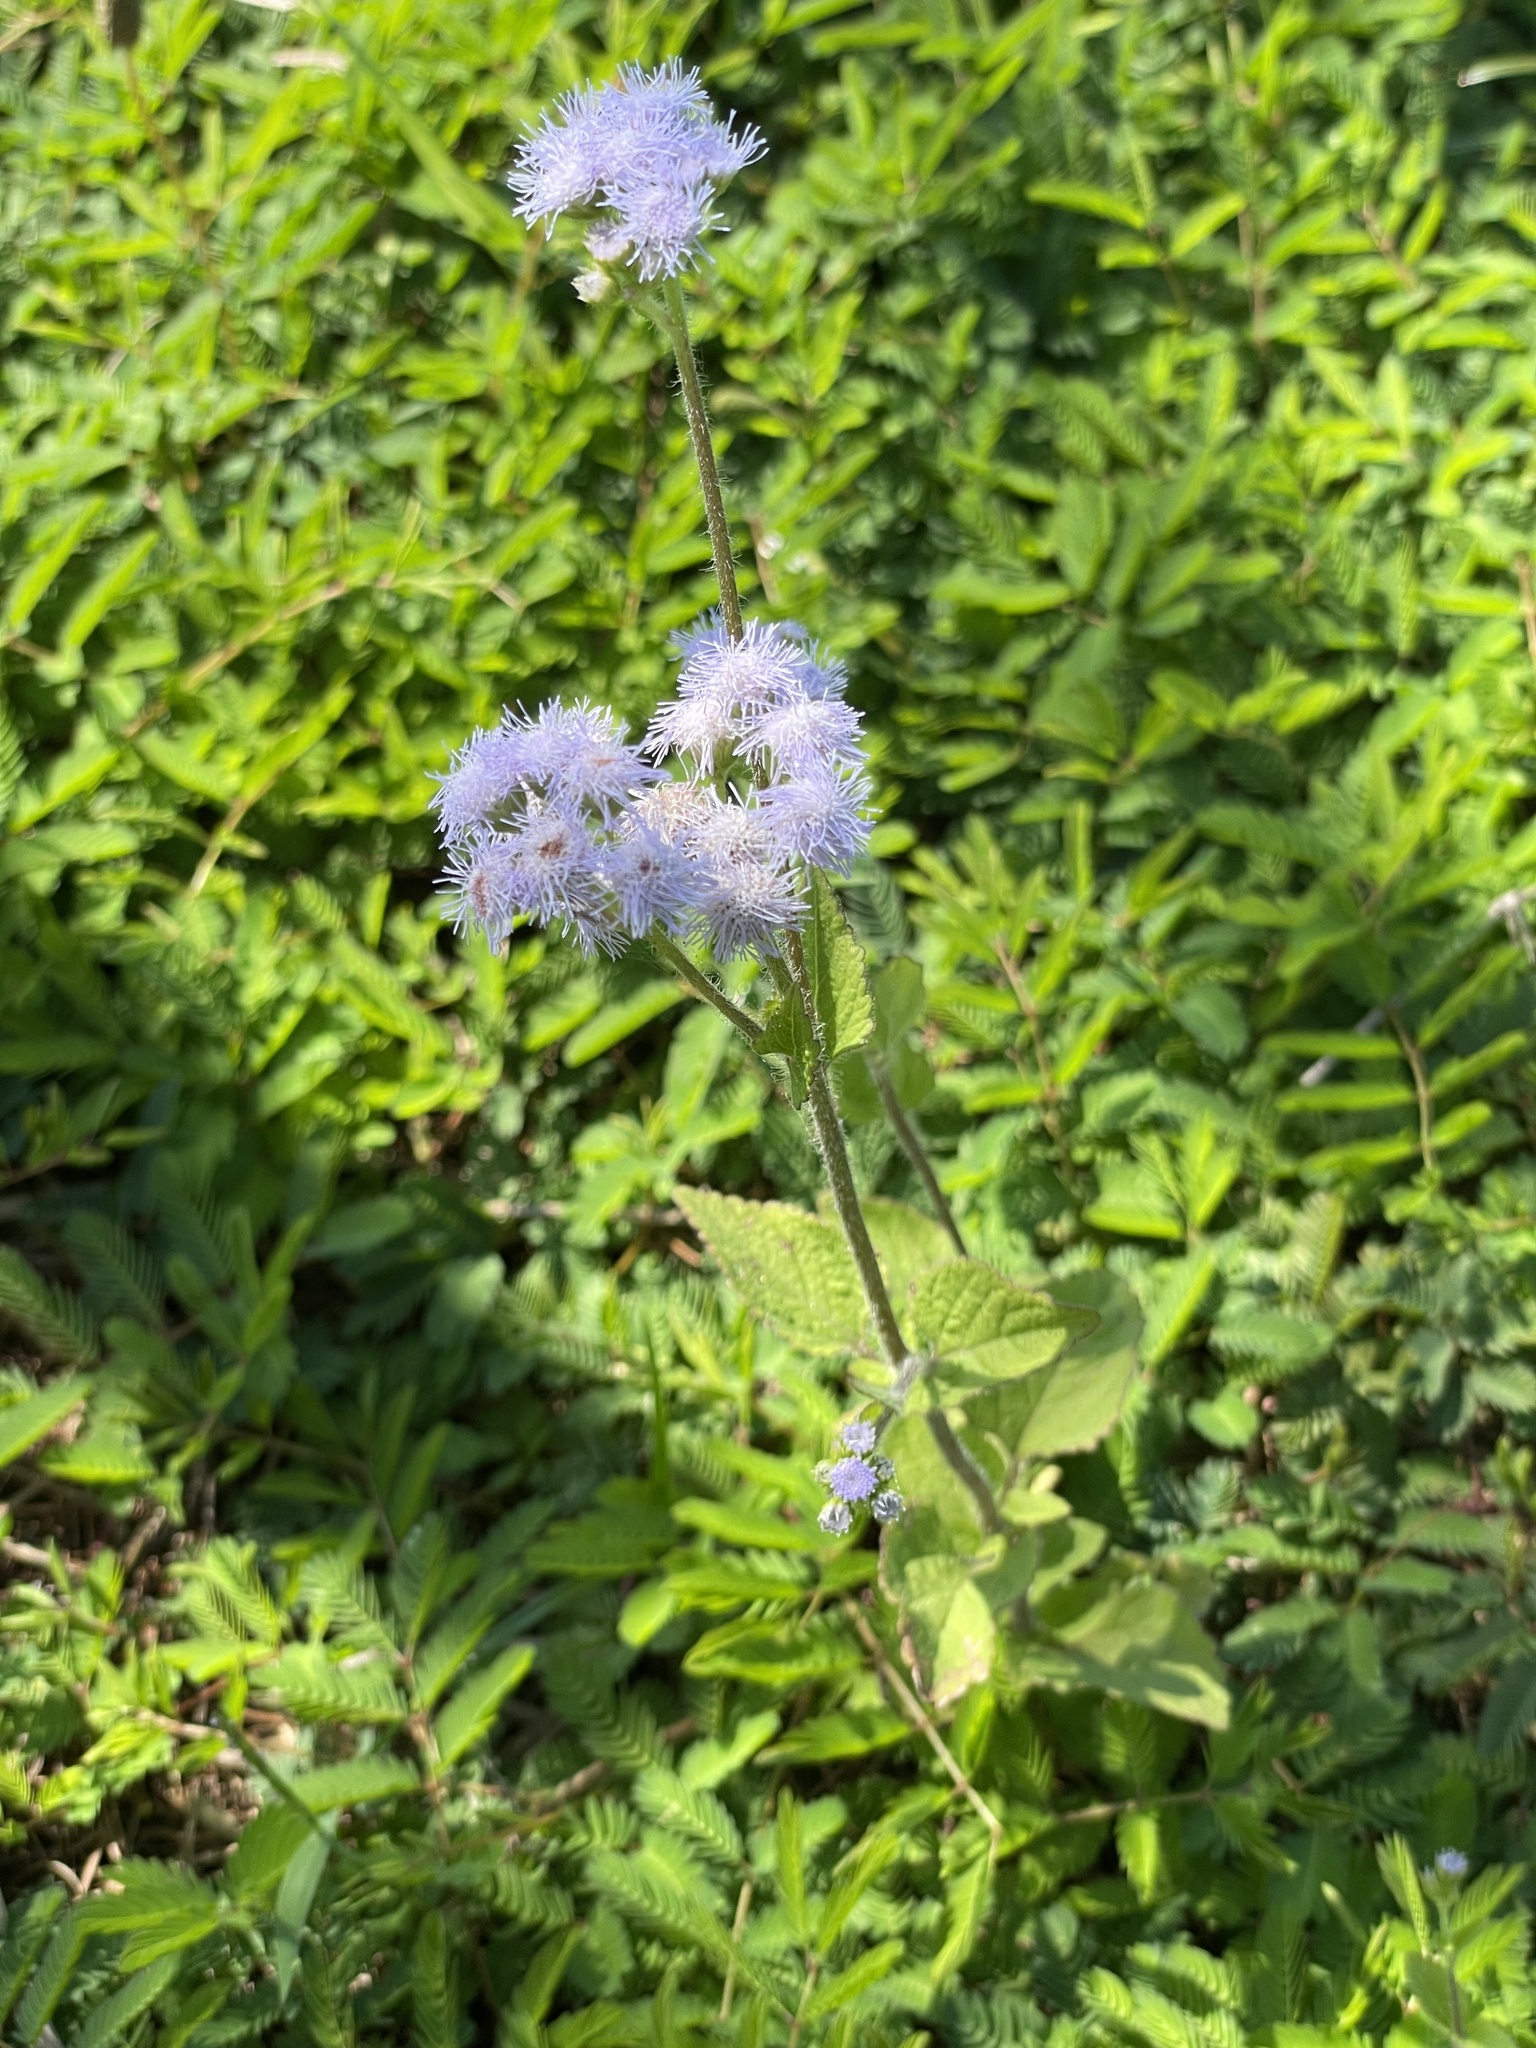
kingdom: Plantae
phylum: Tracheophyta
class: Magnoliopsida
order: Asterales
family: Asteraceae
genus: Ageratum
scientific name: Ageratum houstonianum
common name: Bluemink
